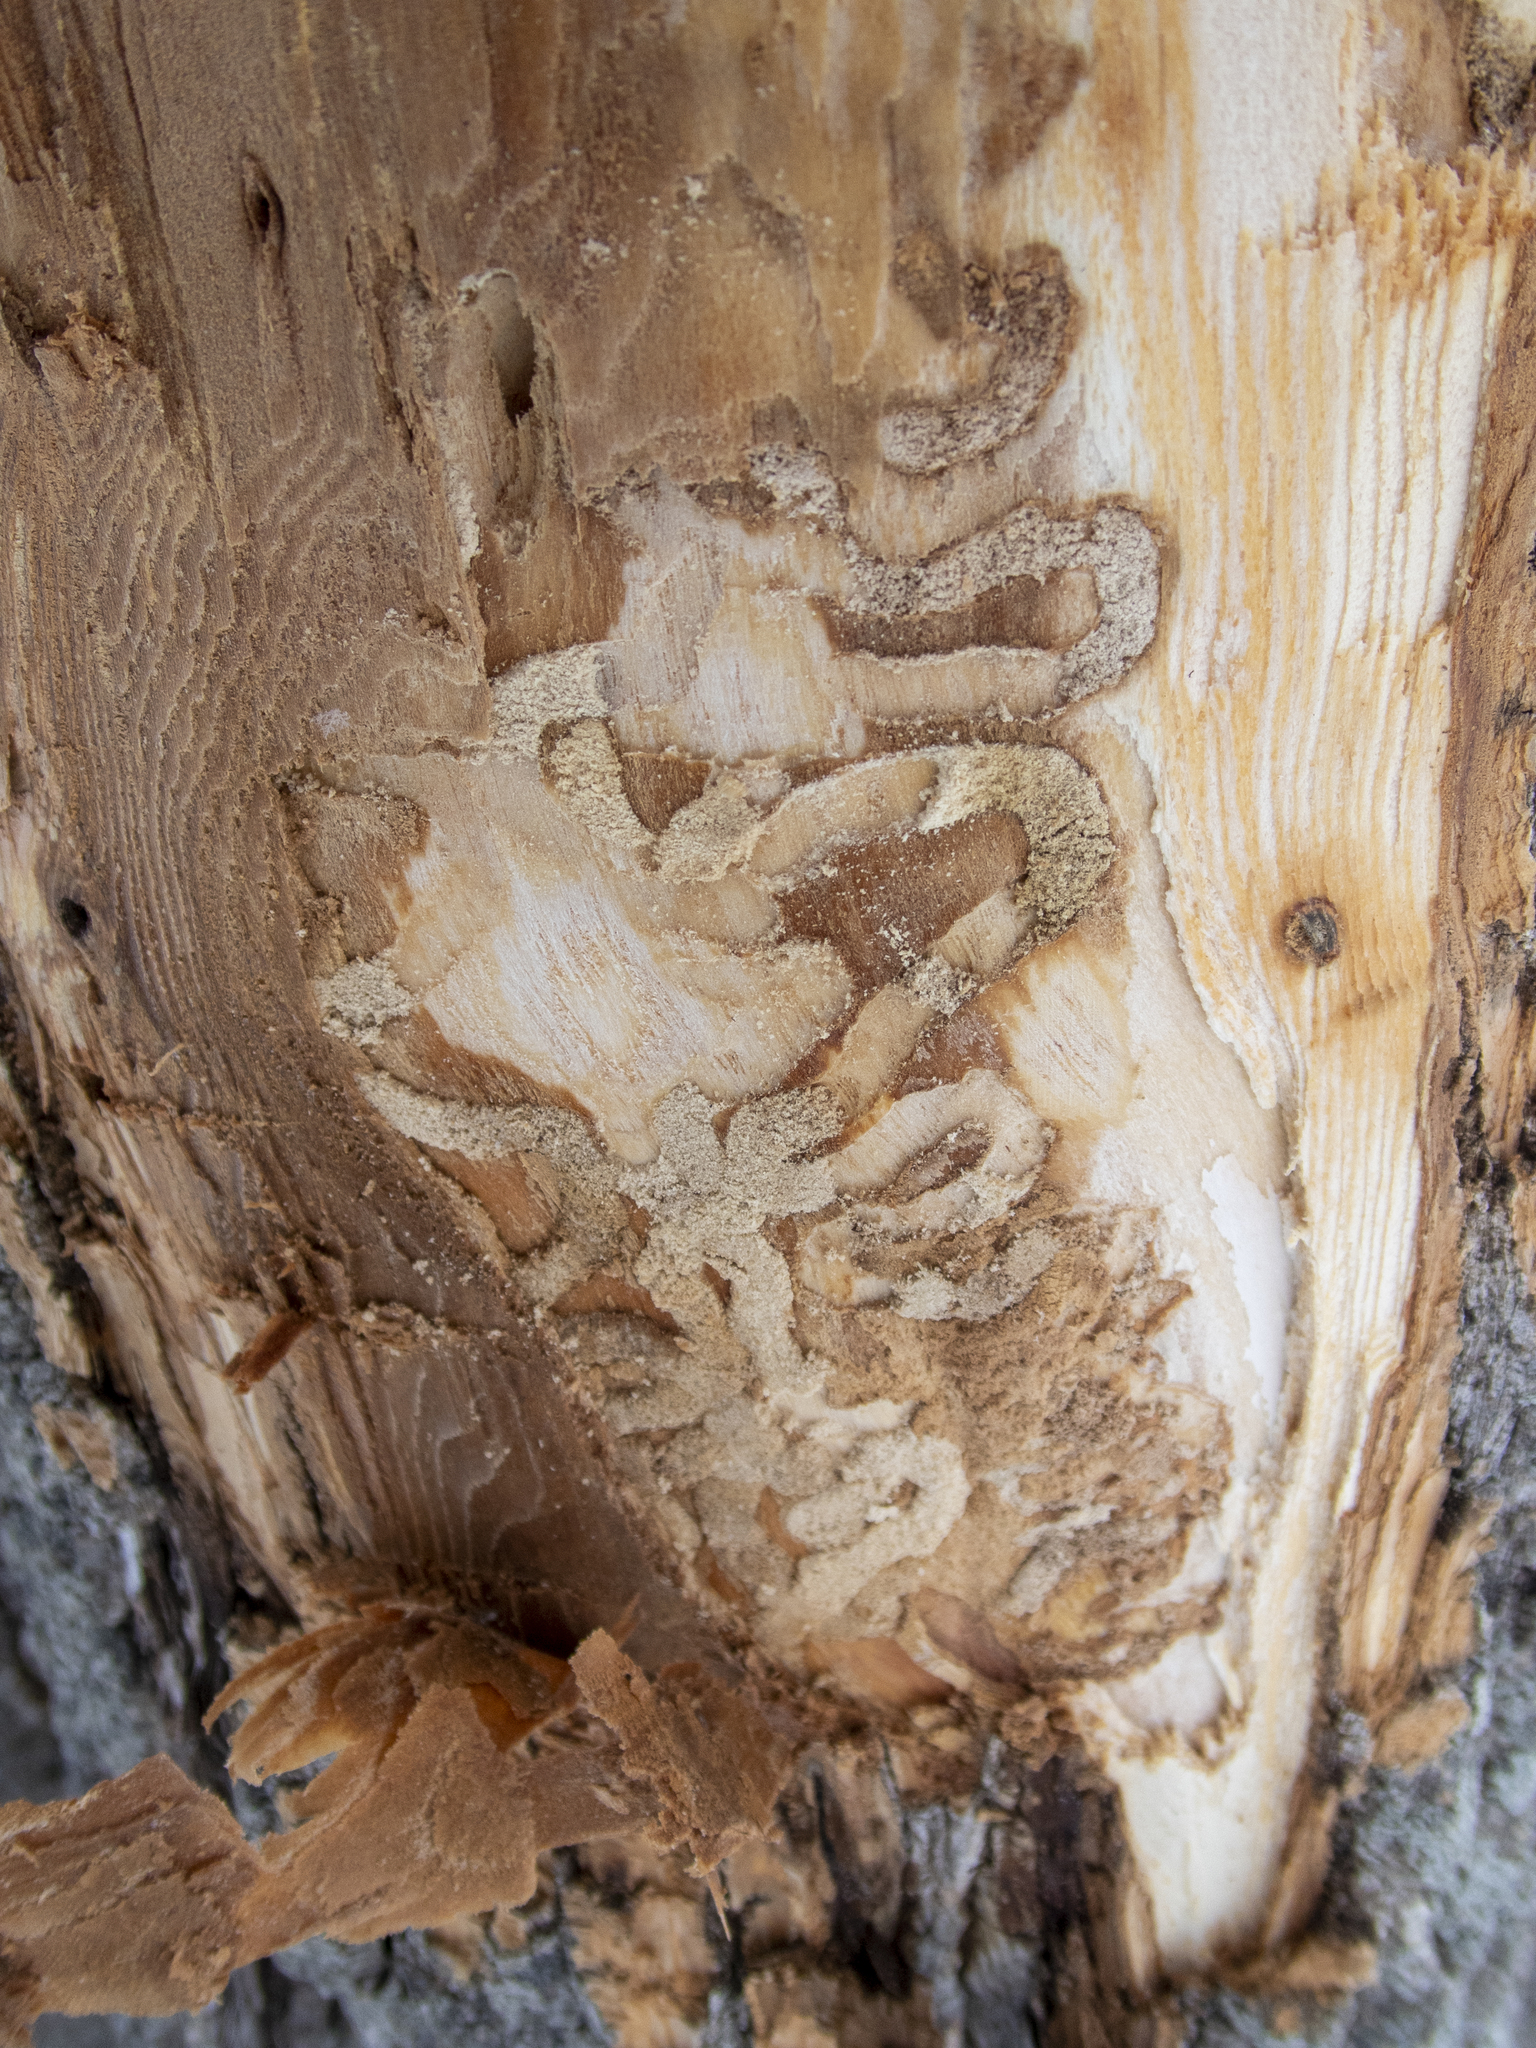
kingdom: Animalia
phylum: Arthropoda
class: Insecta
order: Coleoptera
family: Buprestidae
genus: Agrilus
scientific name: Agrilus planipennis
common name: Emerald ash borer
